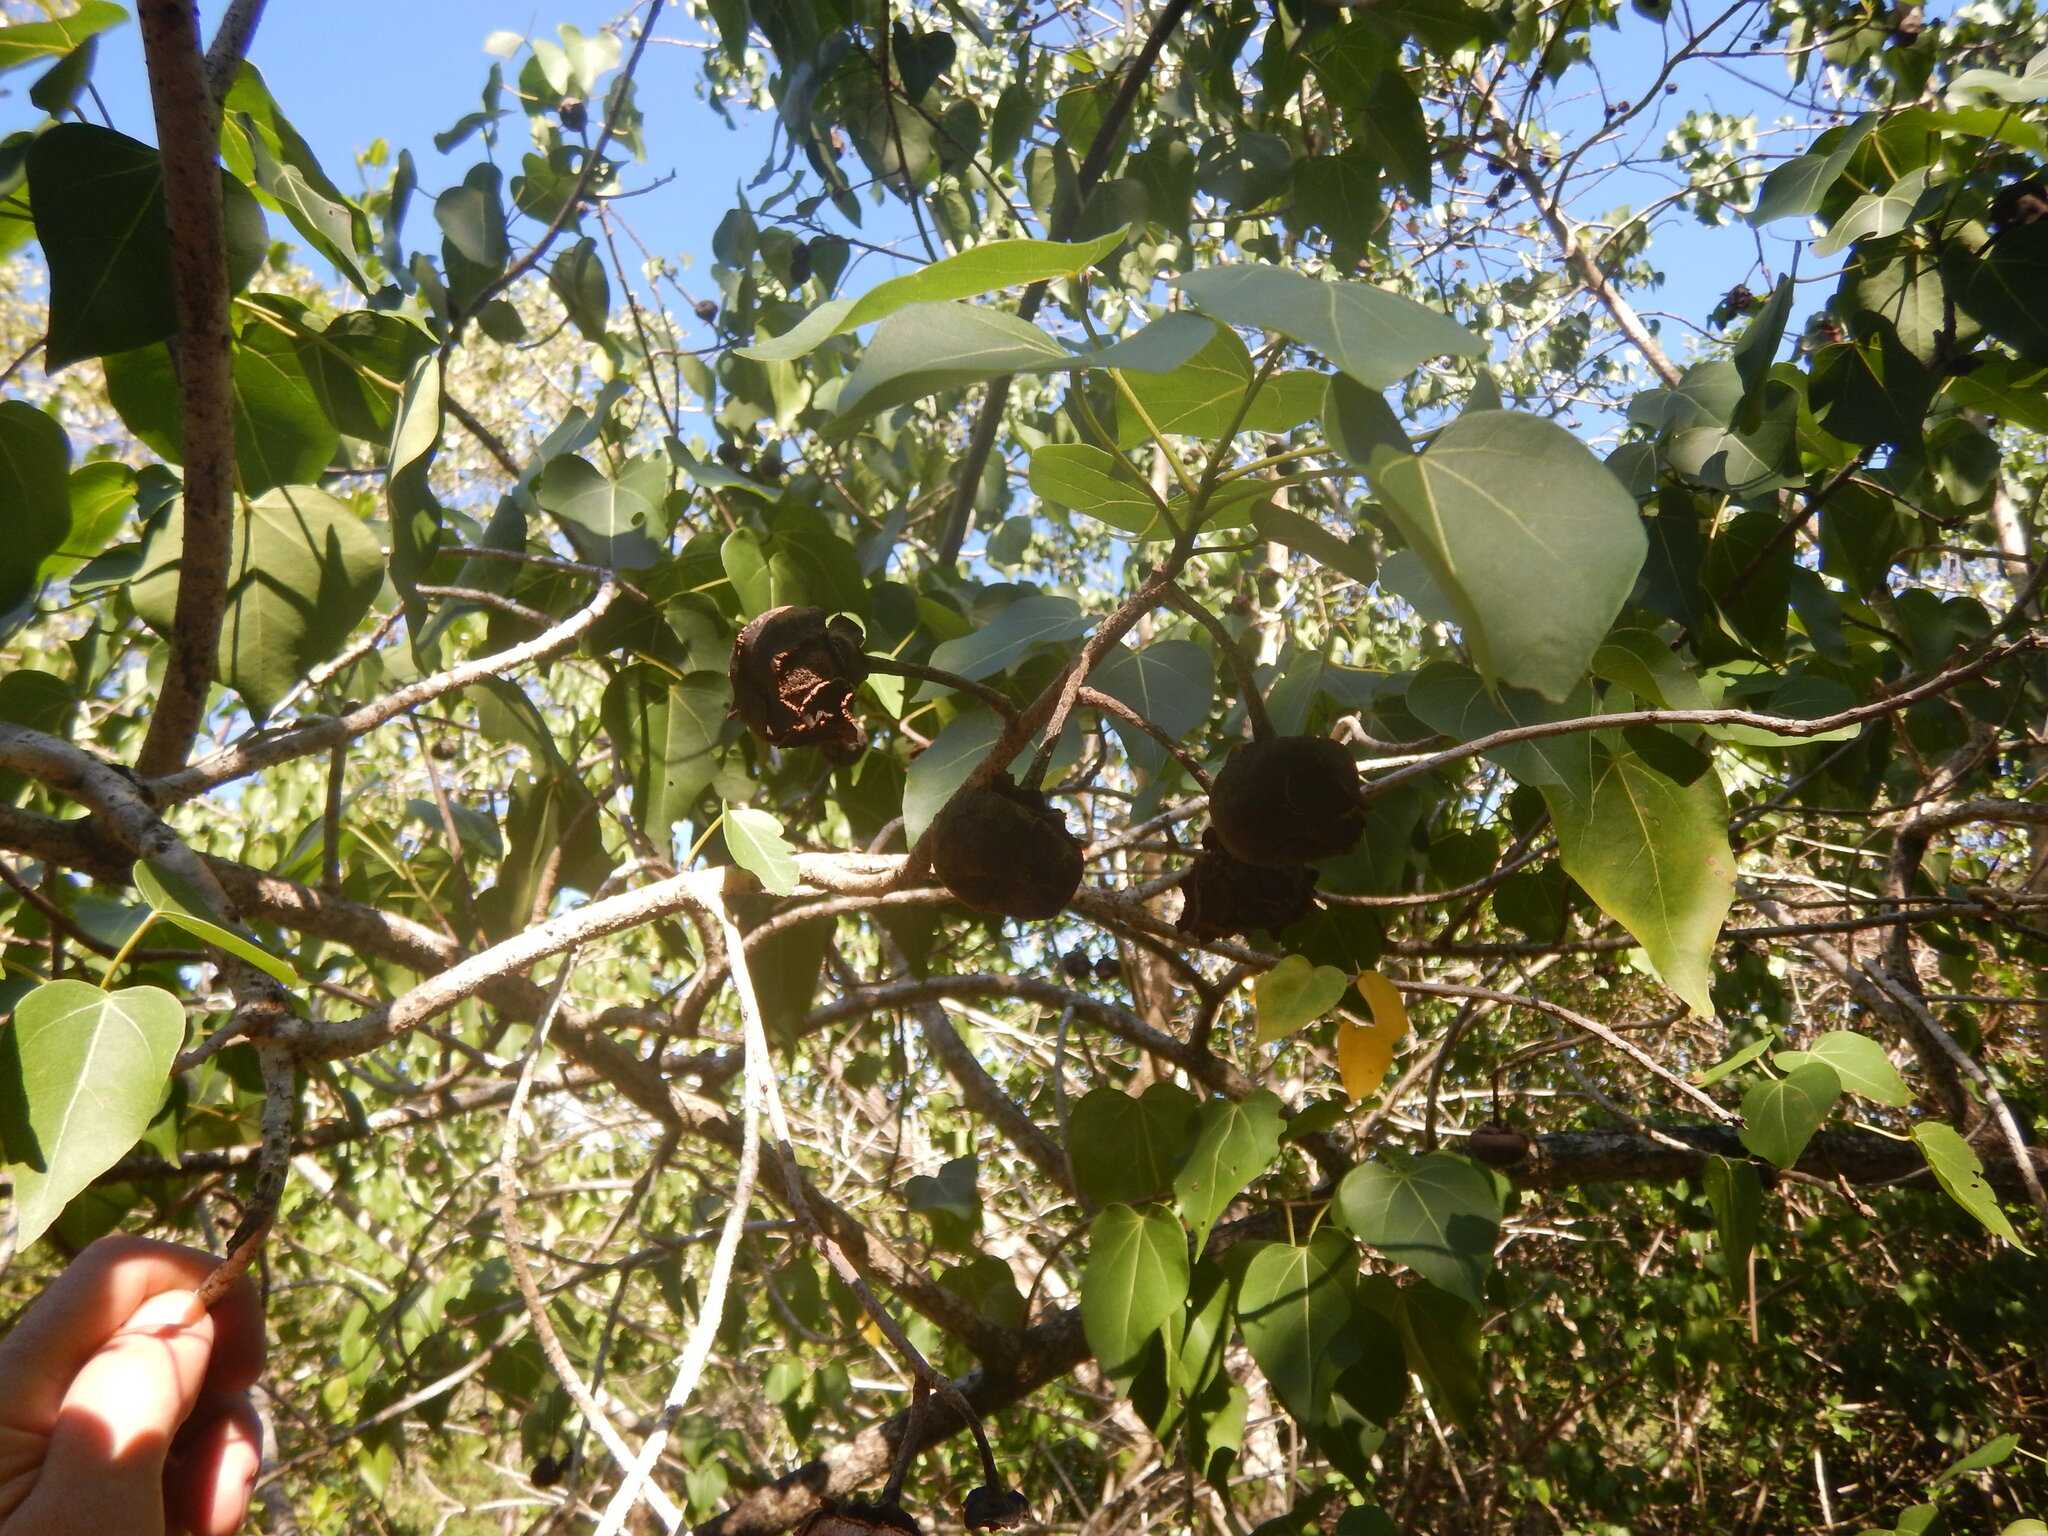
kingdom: Plantae
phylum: Tracheophyta
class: Magnoliopsida
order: Malvales
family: Malvaceae
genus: Thespesia
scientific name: Thespesia populnea
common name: Seaside mahoe
